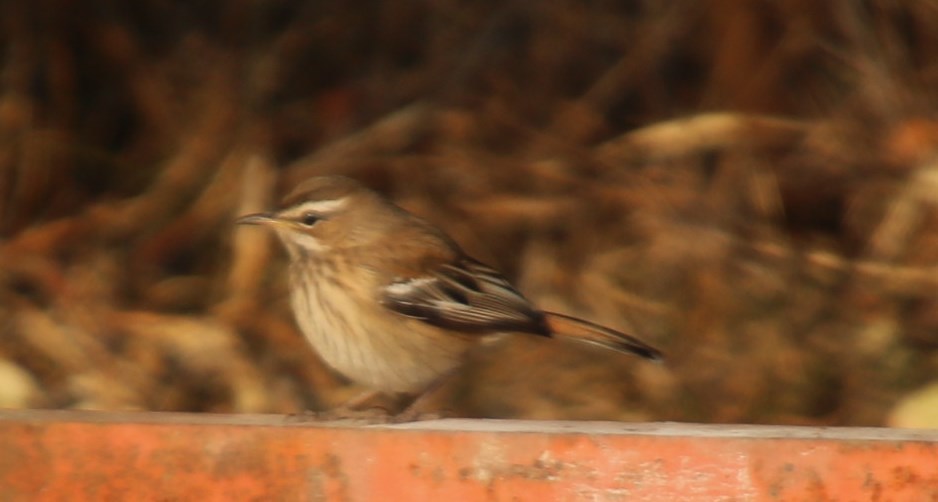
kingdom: Animalia
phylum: Chordata
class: Aves
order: Passeriformes
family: Muscicapidae
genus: Erythropygia
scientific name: Erythropygia leucophrys
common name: White-browed scrub robin
